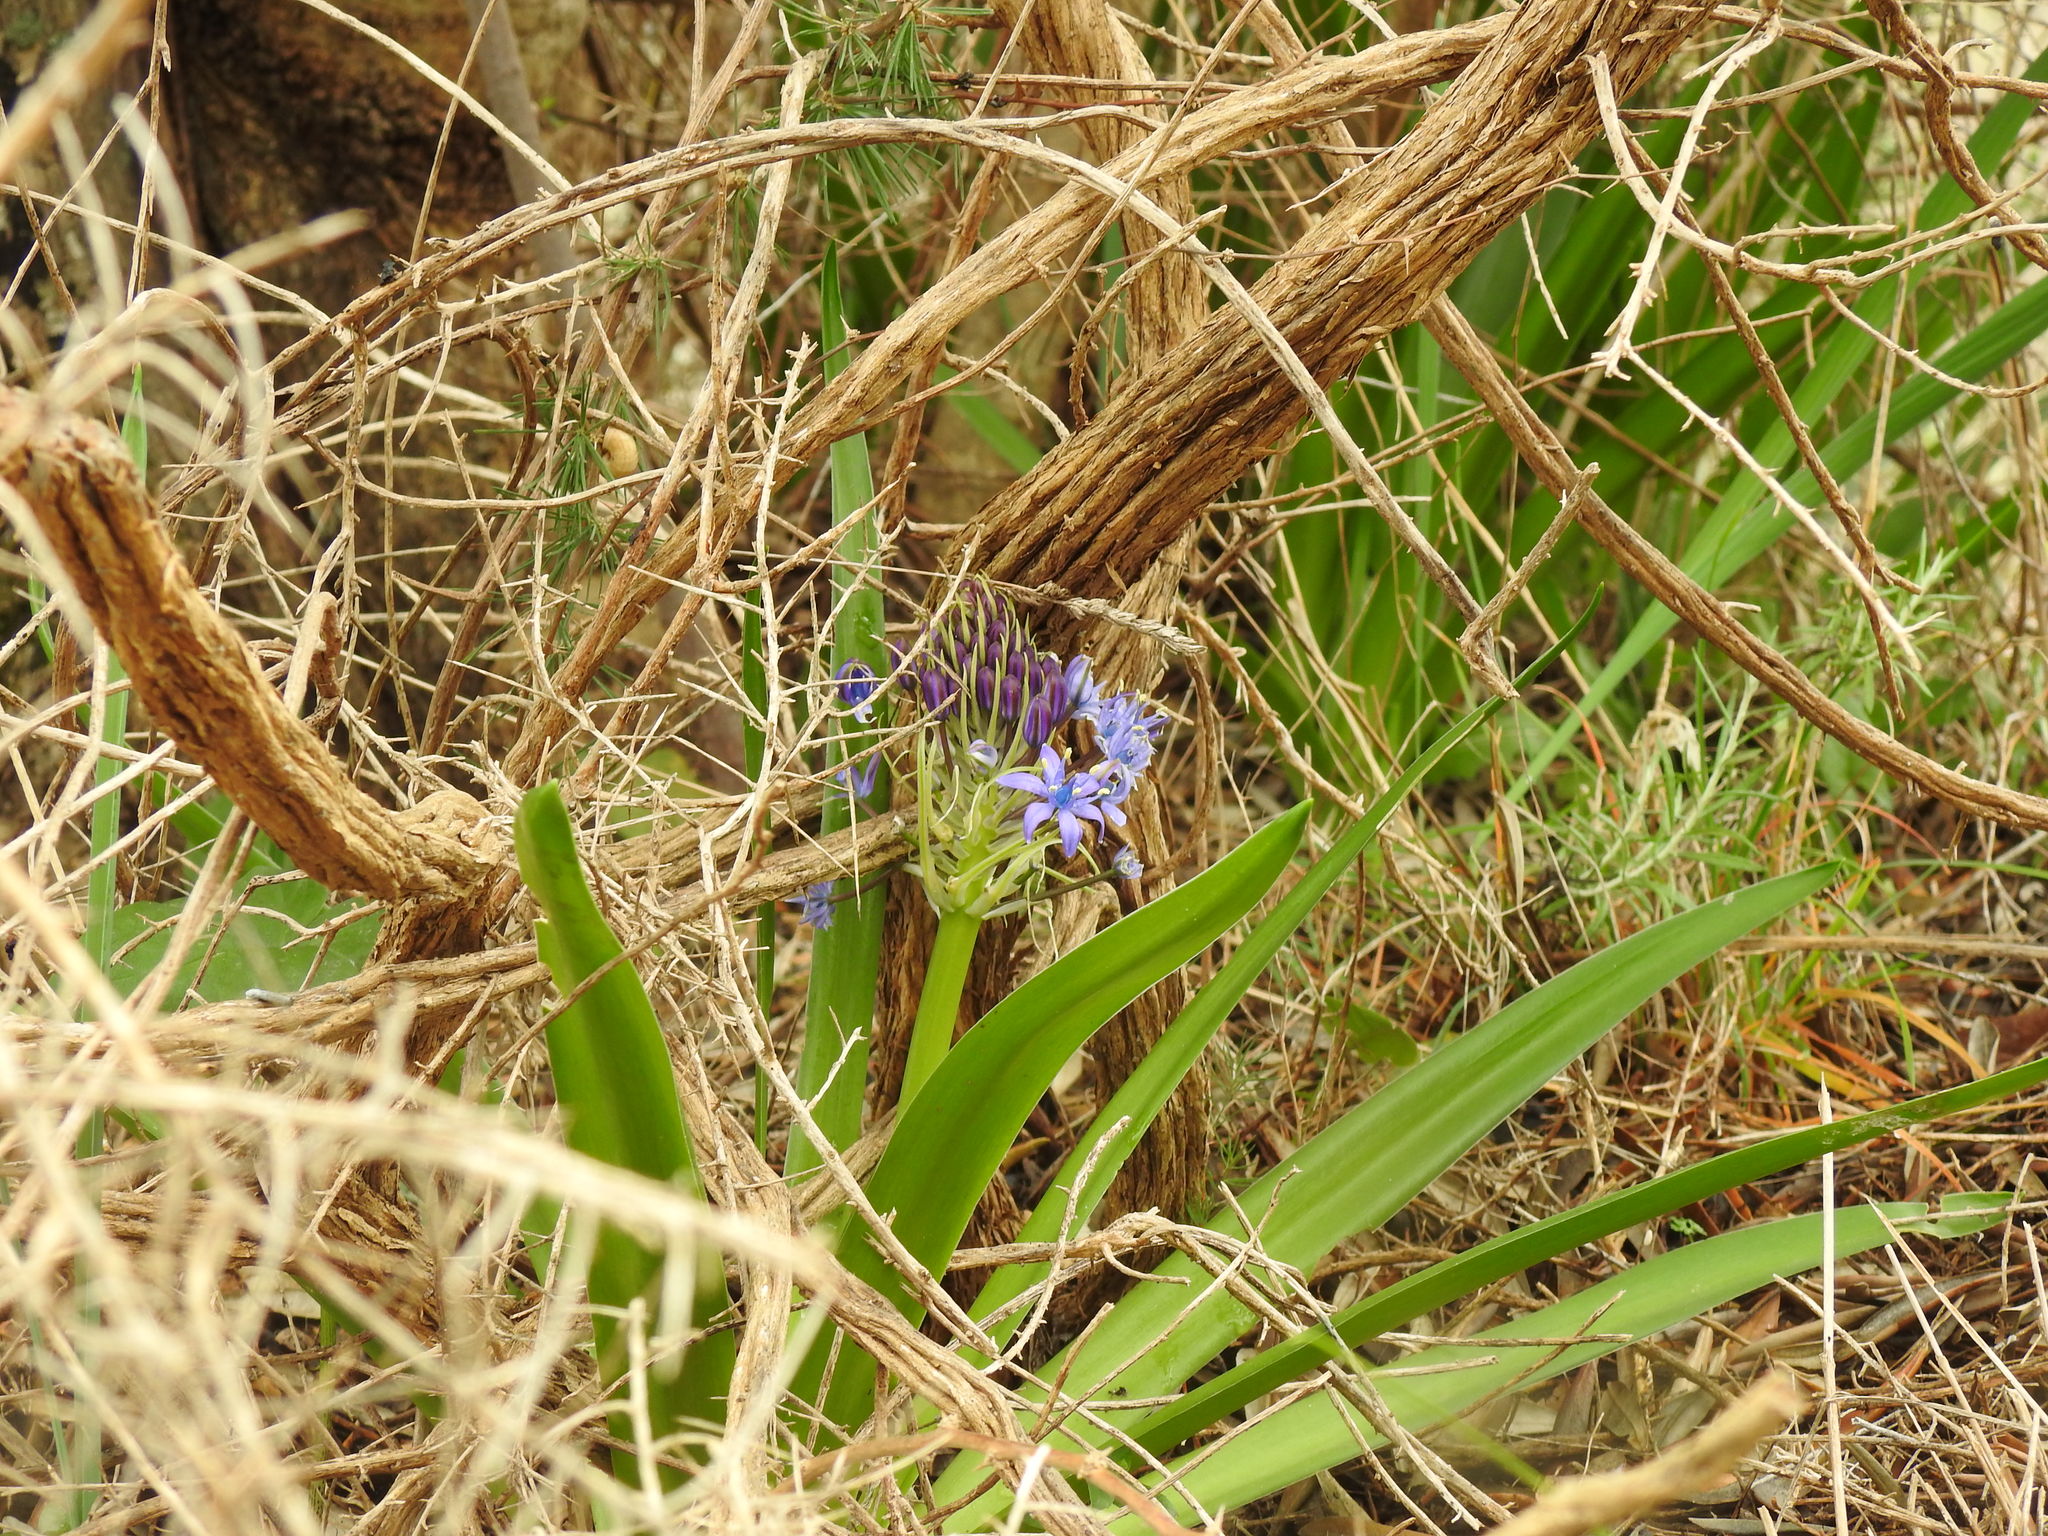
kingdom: Plantae
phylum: Tracheophyta
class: Liliopsida
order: Asparagales
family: Asparagaceae
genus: Scilla
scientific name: Scilla peruviana
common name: Portuguese squill
